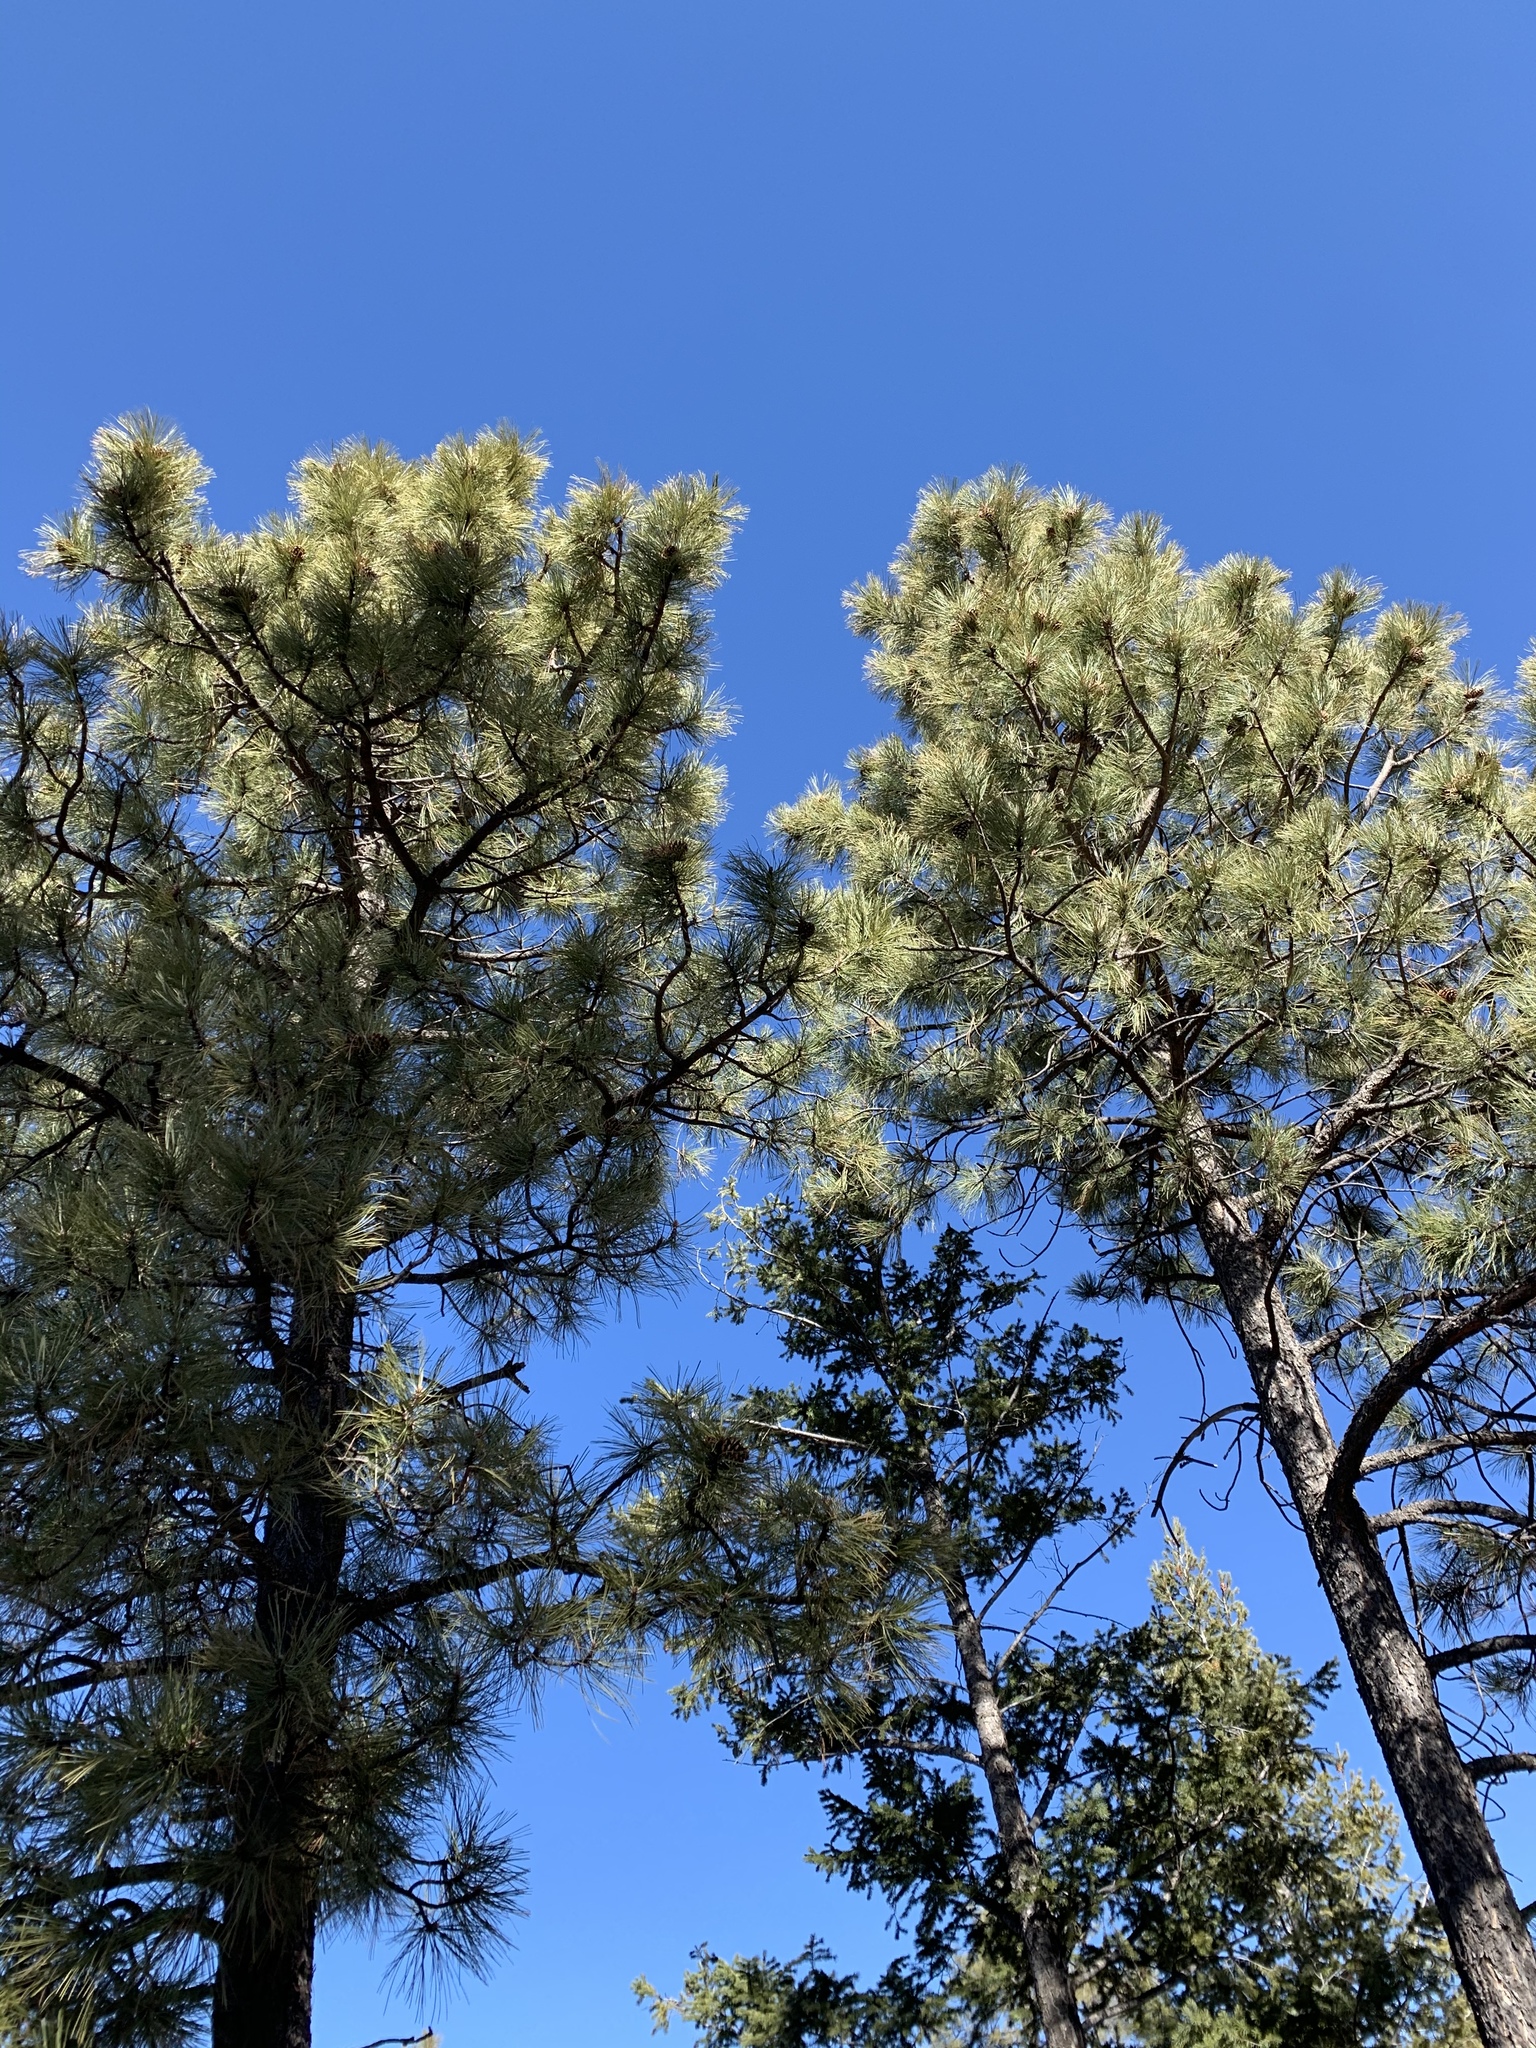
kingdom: Plantae
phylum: Tracheophyta
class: Pinopsida
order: Pinales
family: Pinaceae
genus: Pinus
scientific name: Pinus ponderosa
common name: Western yellow-pine
